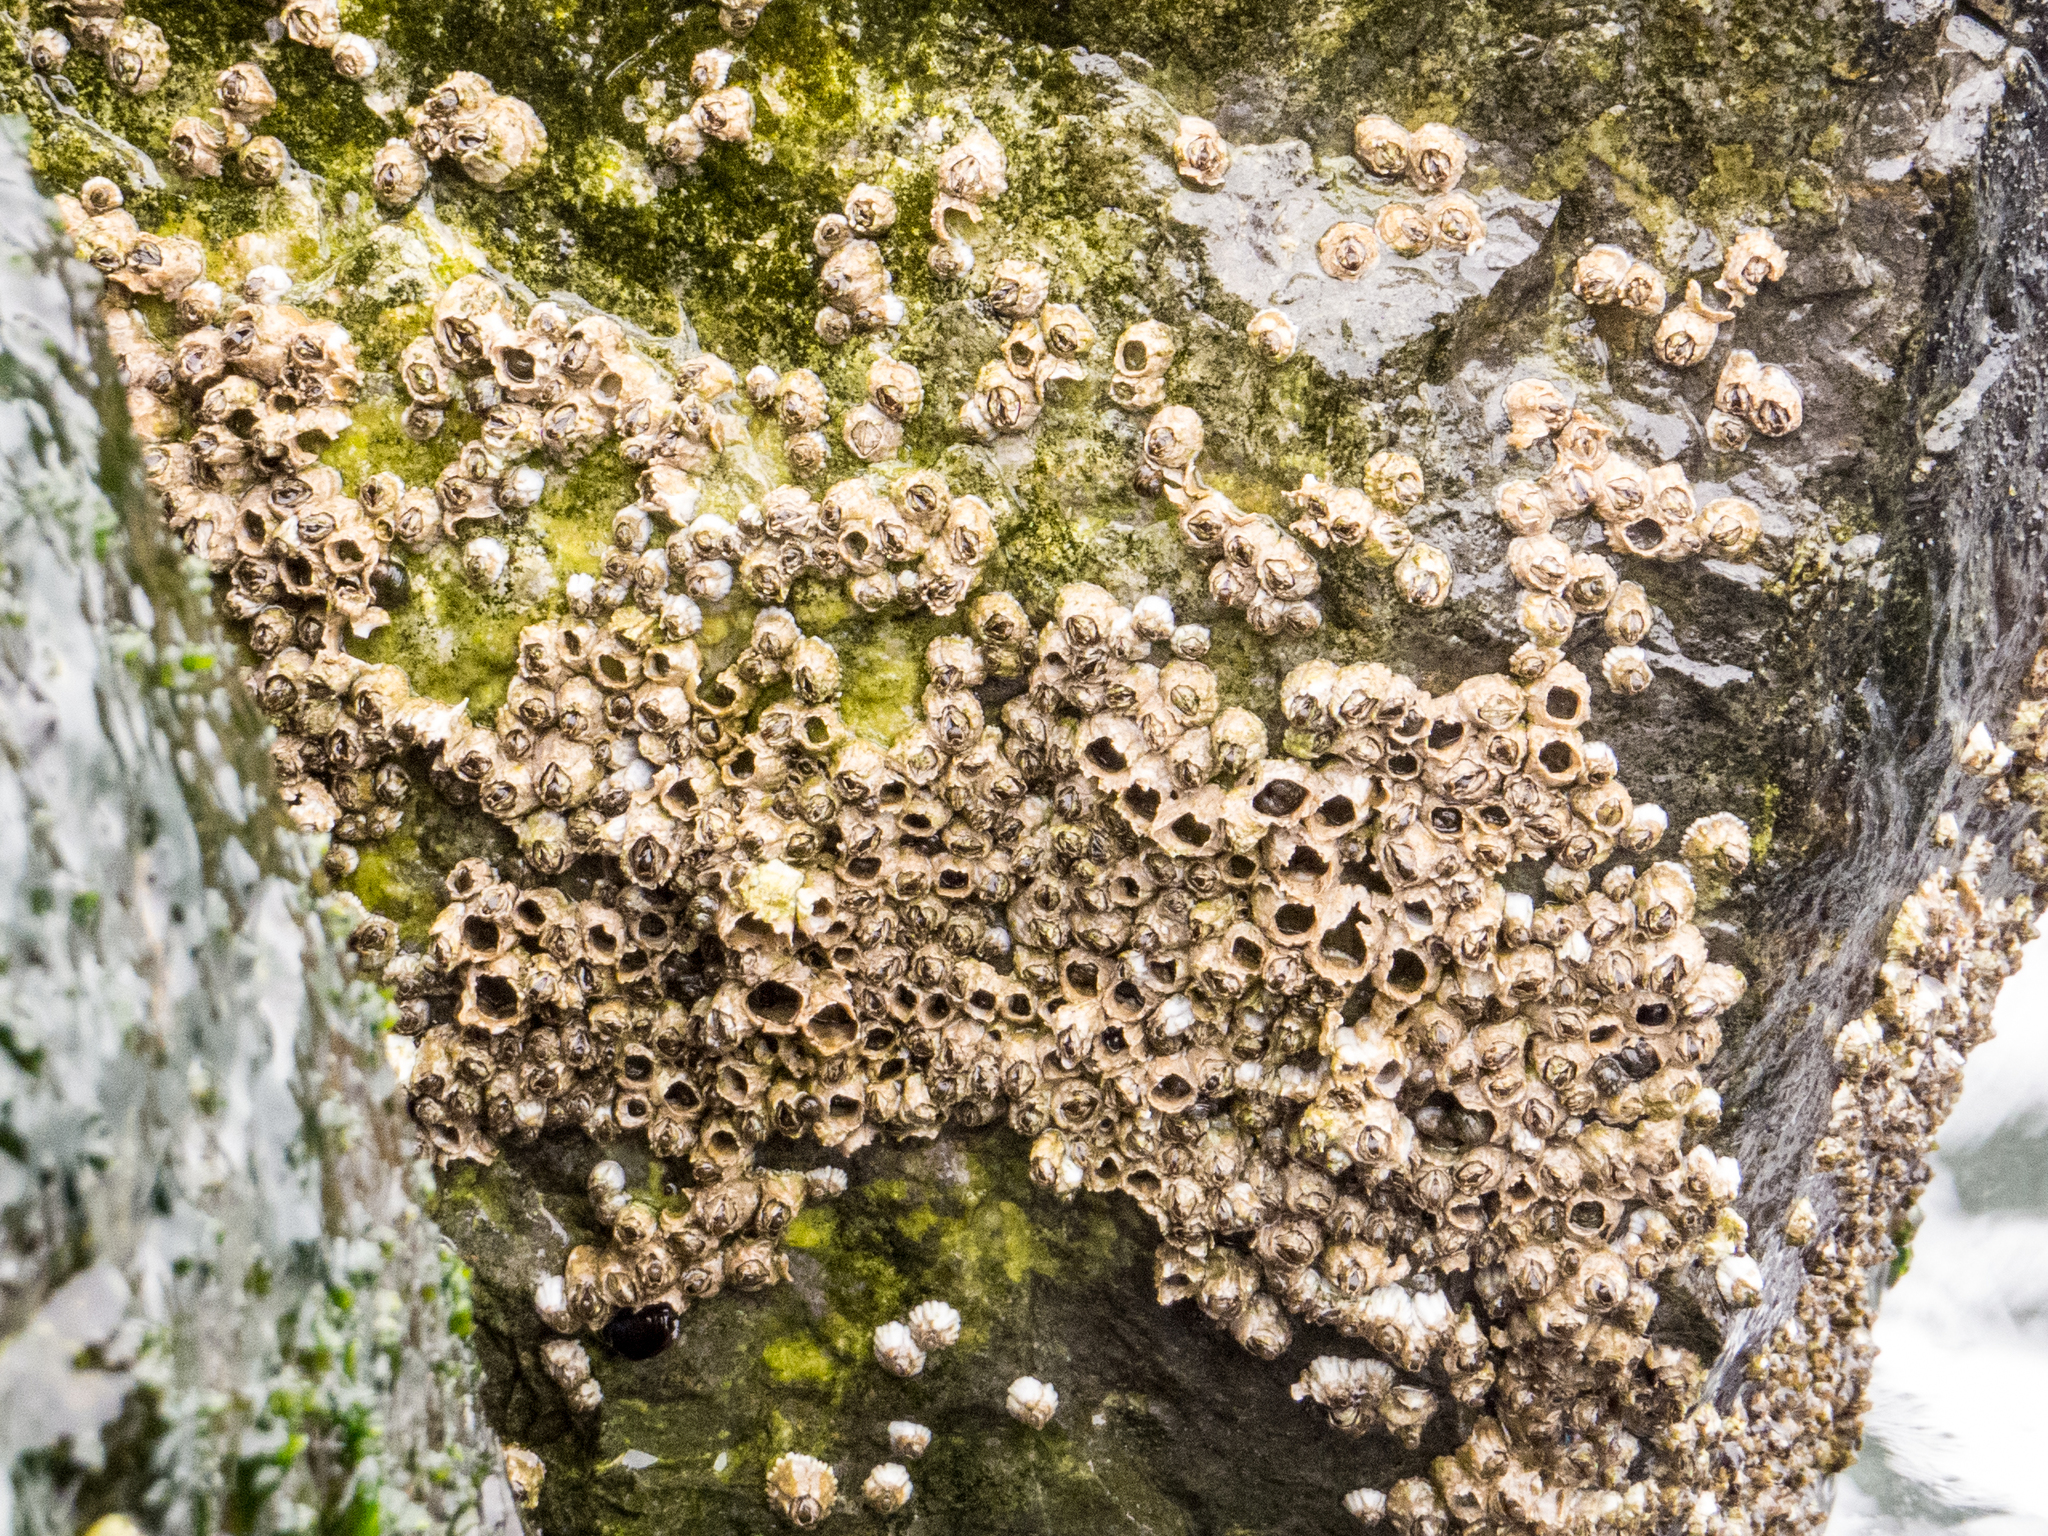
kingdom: Animalia
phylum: Arthropoda
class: Maxillopoda
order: Sessilia
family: Archaeobalanidae
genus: Semibalanus
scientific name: Semibalanus balanoides
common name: Acorn barnacle
